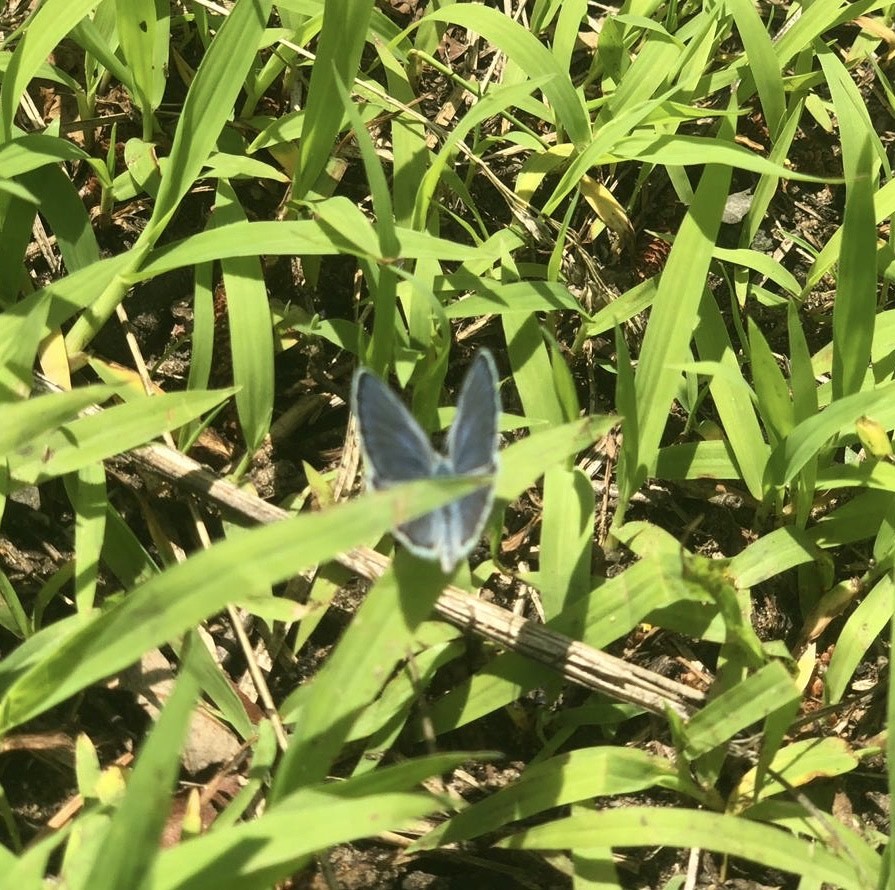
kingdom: Animalia
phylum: Arthropoda
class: Insecta
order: Lepidoptera
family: Lycaenidae
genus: Plebejus
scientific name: Plebejus samuelis
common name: Karner blue
